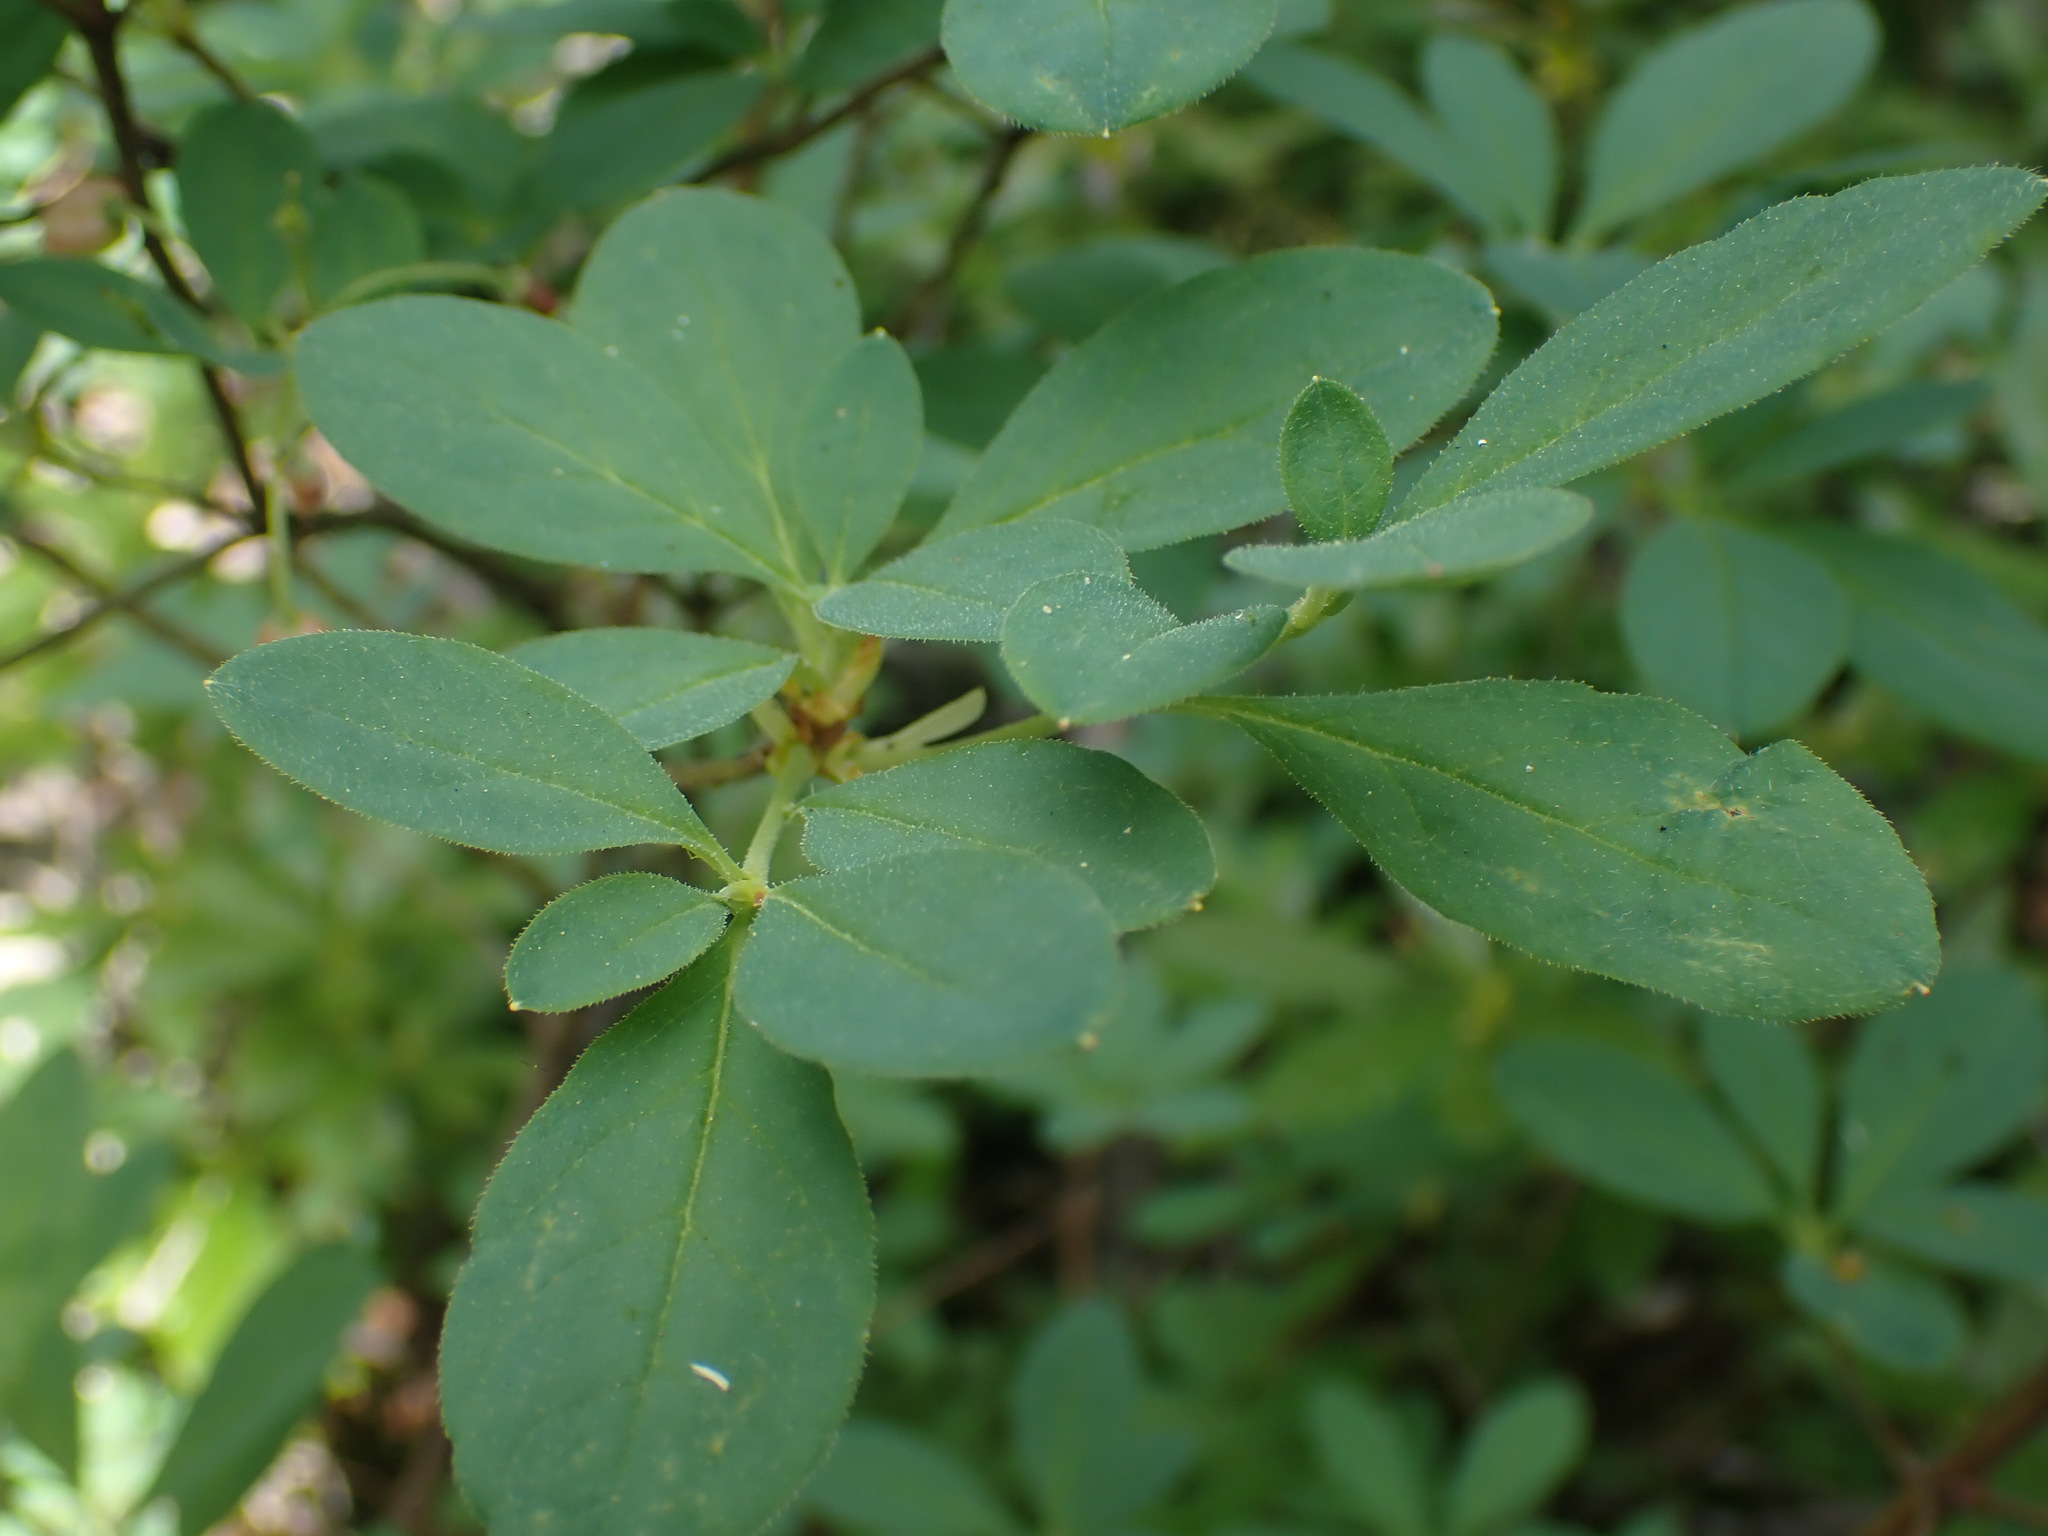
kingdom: Plantae
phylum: Tracheophyta
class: Magnoliopsida
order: Ericales
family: Ericaceae
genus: Rhododendron
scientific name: Rhododendron menziesii
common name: Pacific menziesia
